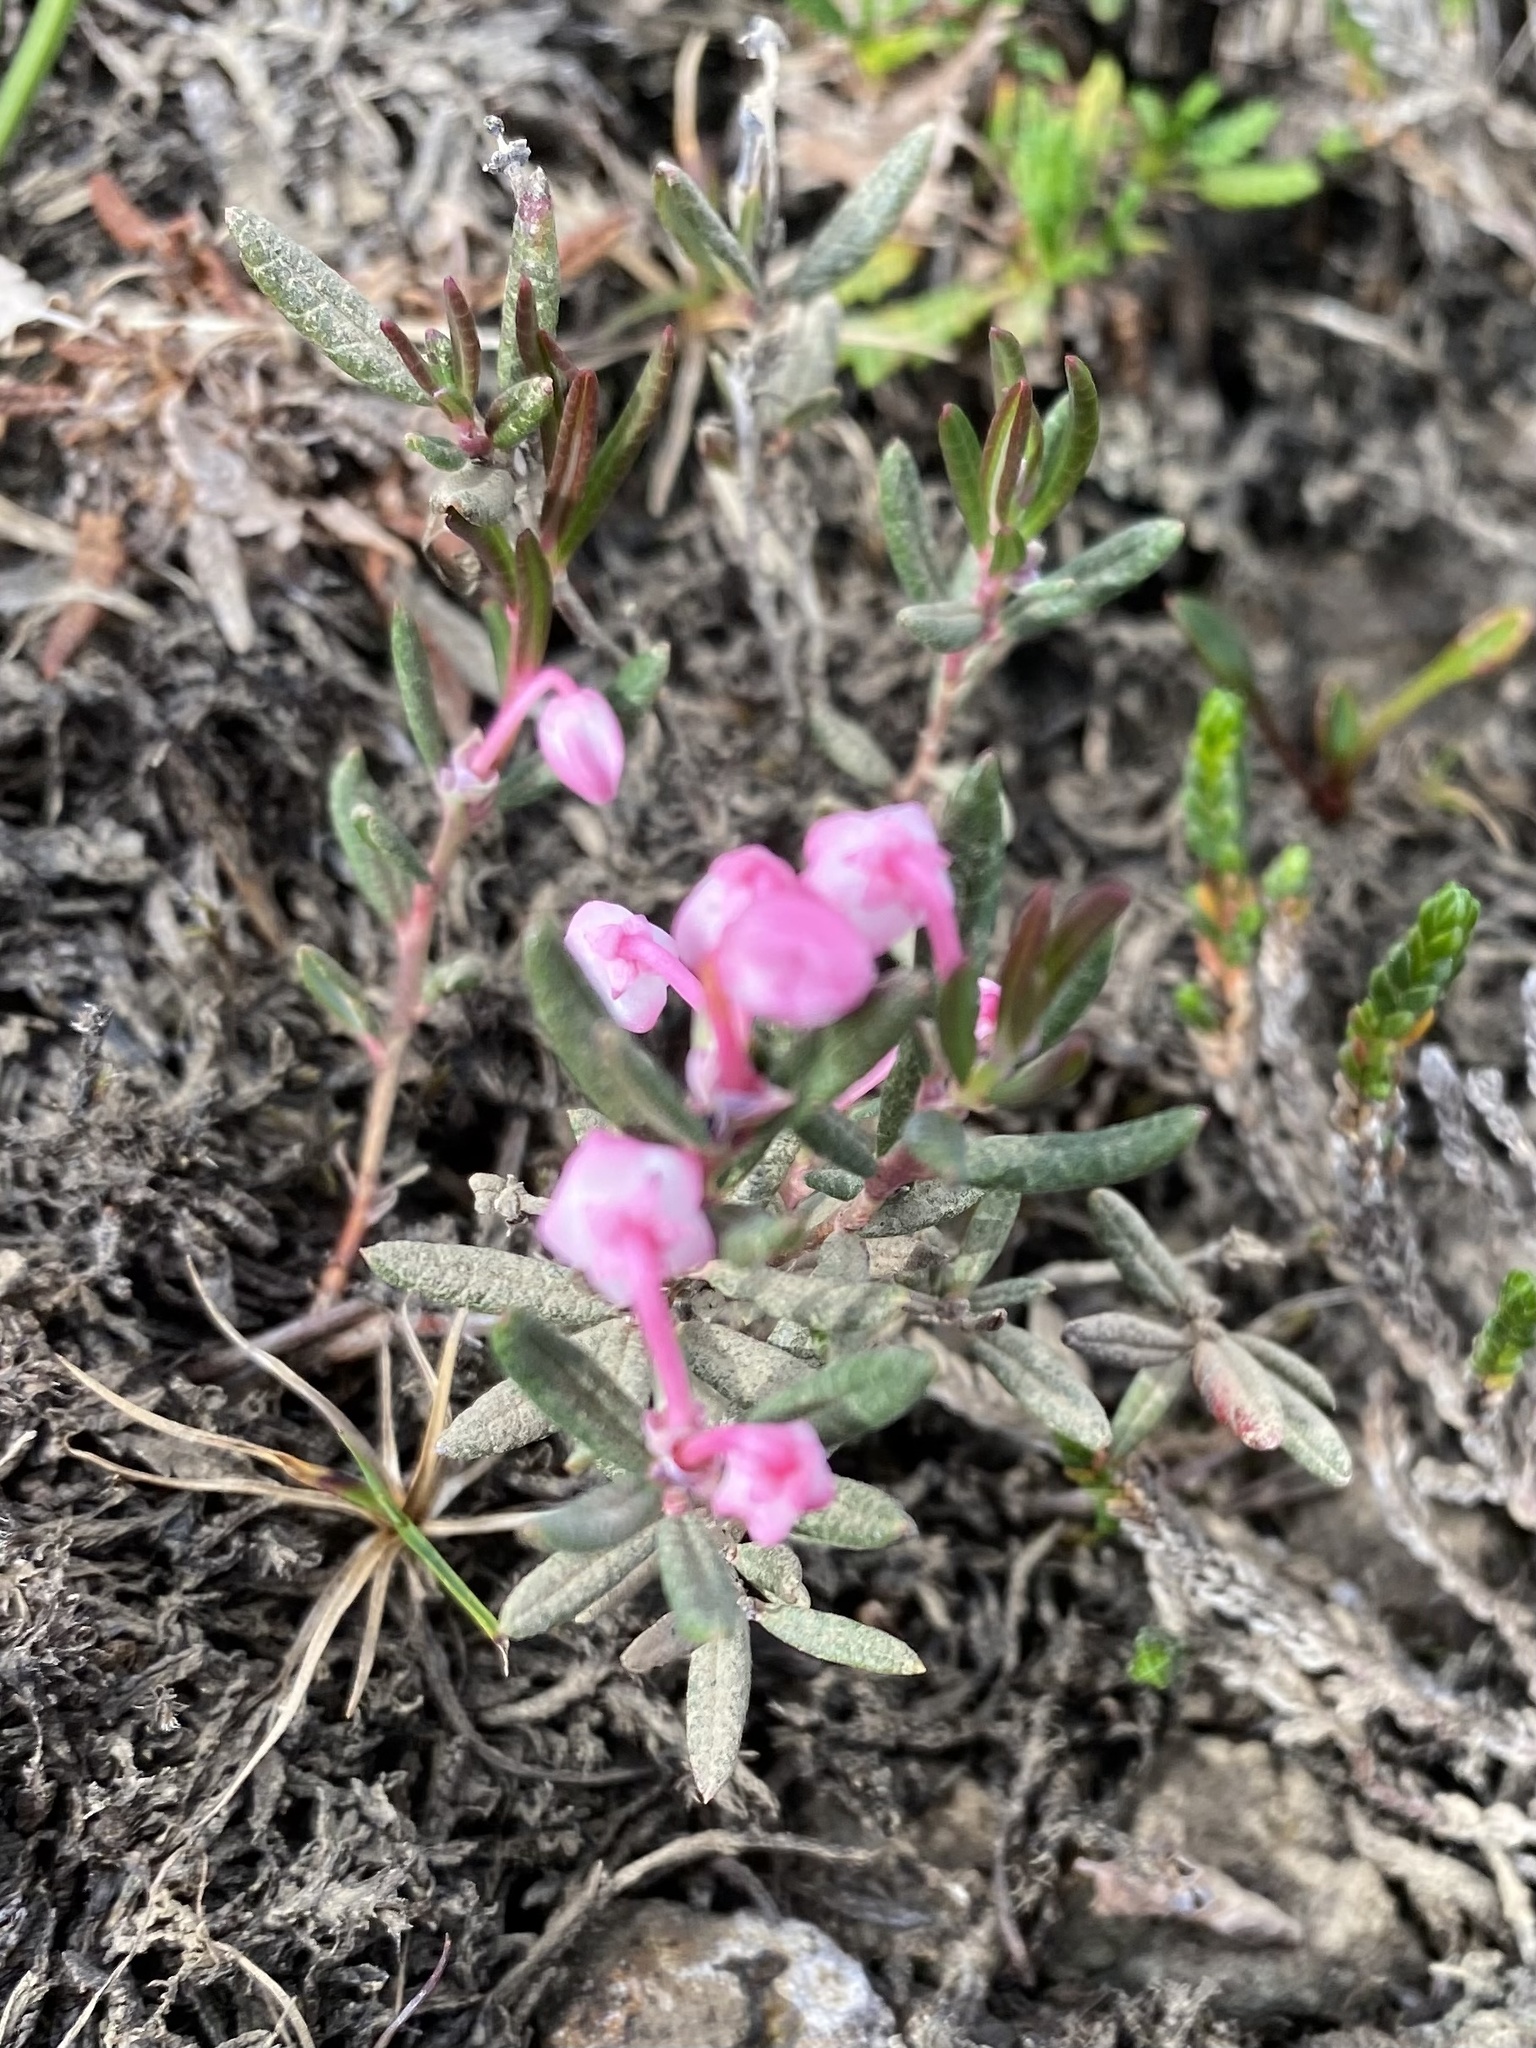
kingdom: Plantae
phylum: Tracheophyta
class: Magnoliopsida
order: Ericales
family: Ericaceae
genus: Andromeda
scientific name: Andromeda polifolia
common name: Bog-rosemary
